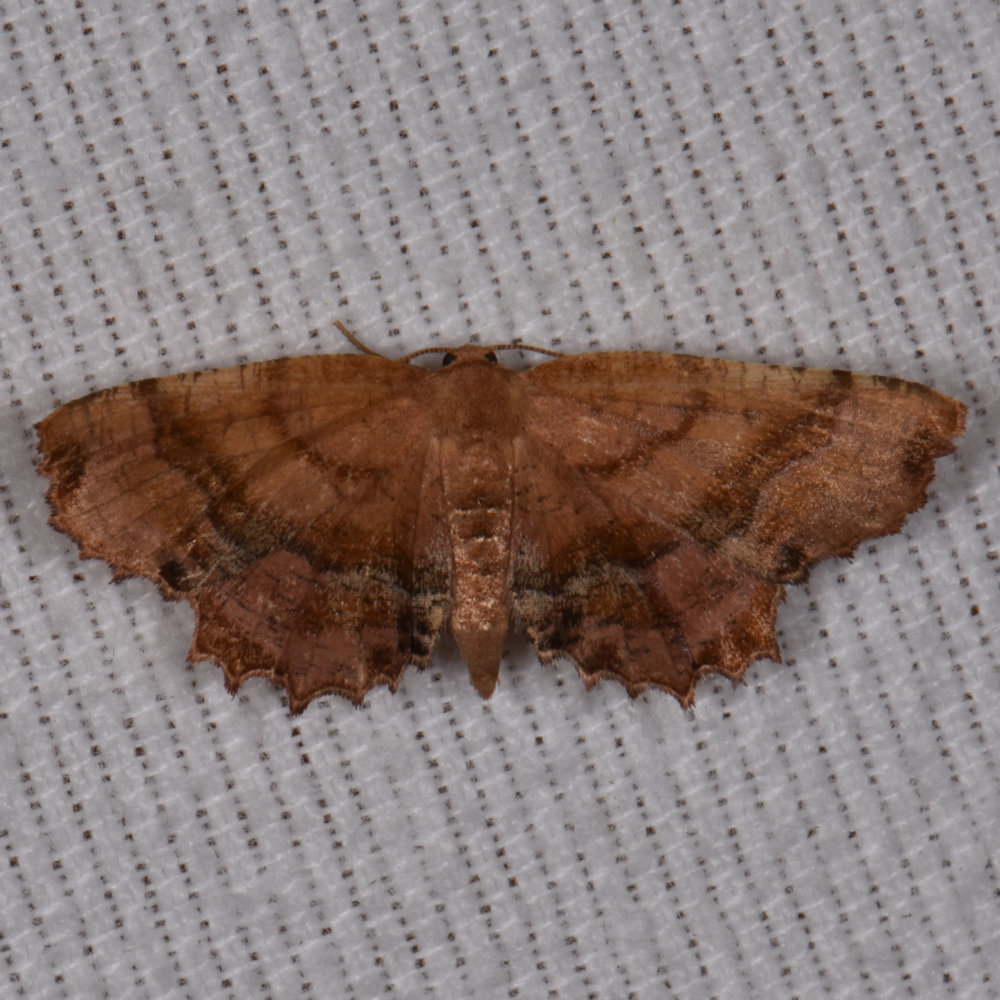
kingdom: Animalia
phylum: Arthropoda
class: Insecta
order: Lepidoptera
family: Geometridae
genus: Cepphis
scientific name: Cepphis armataria
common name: Scallop moth
